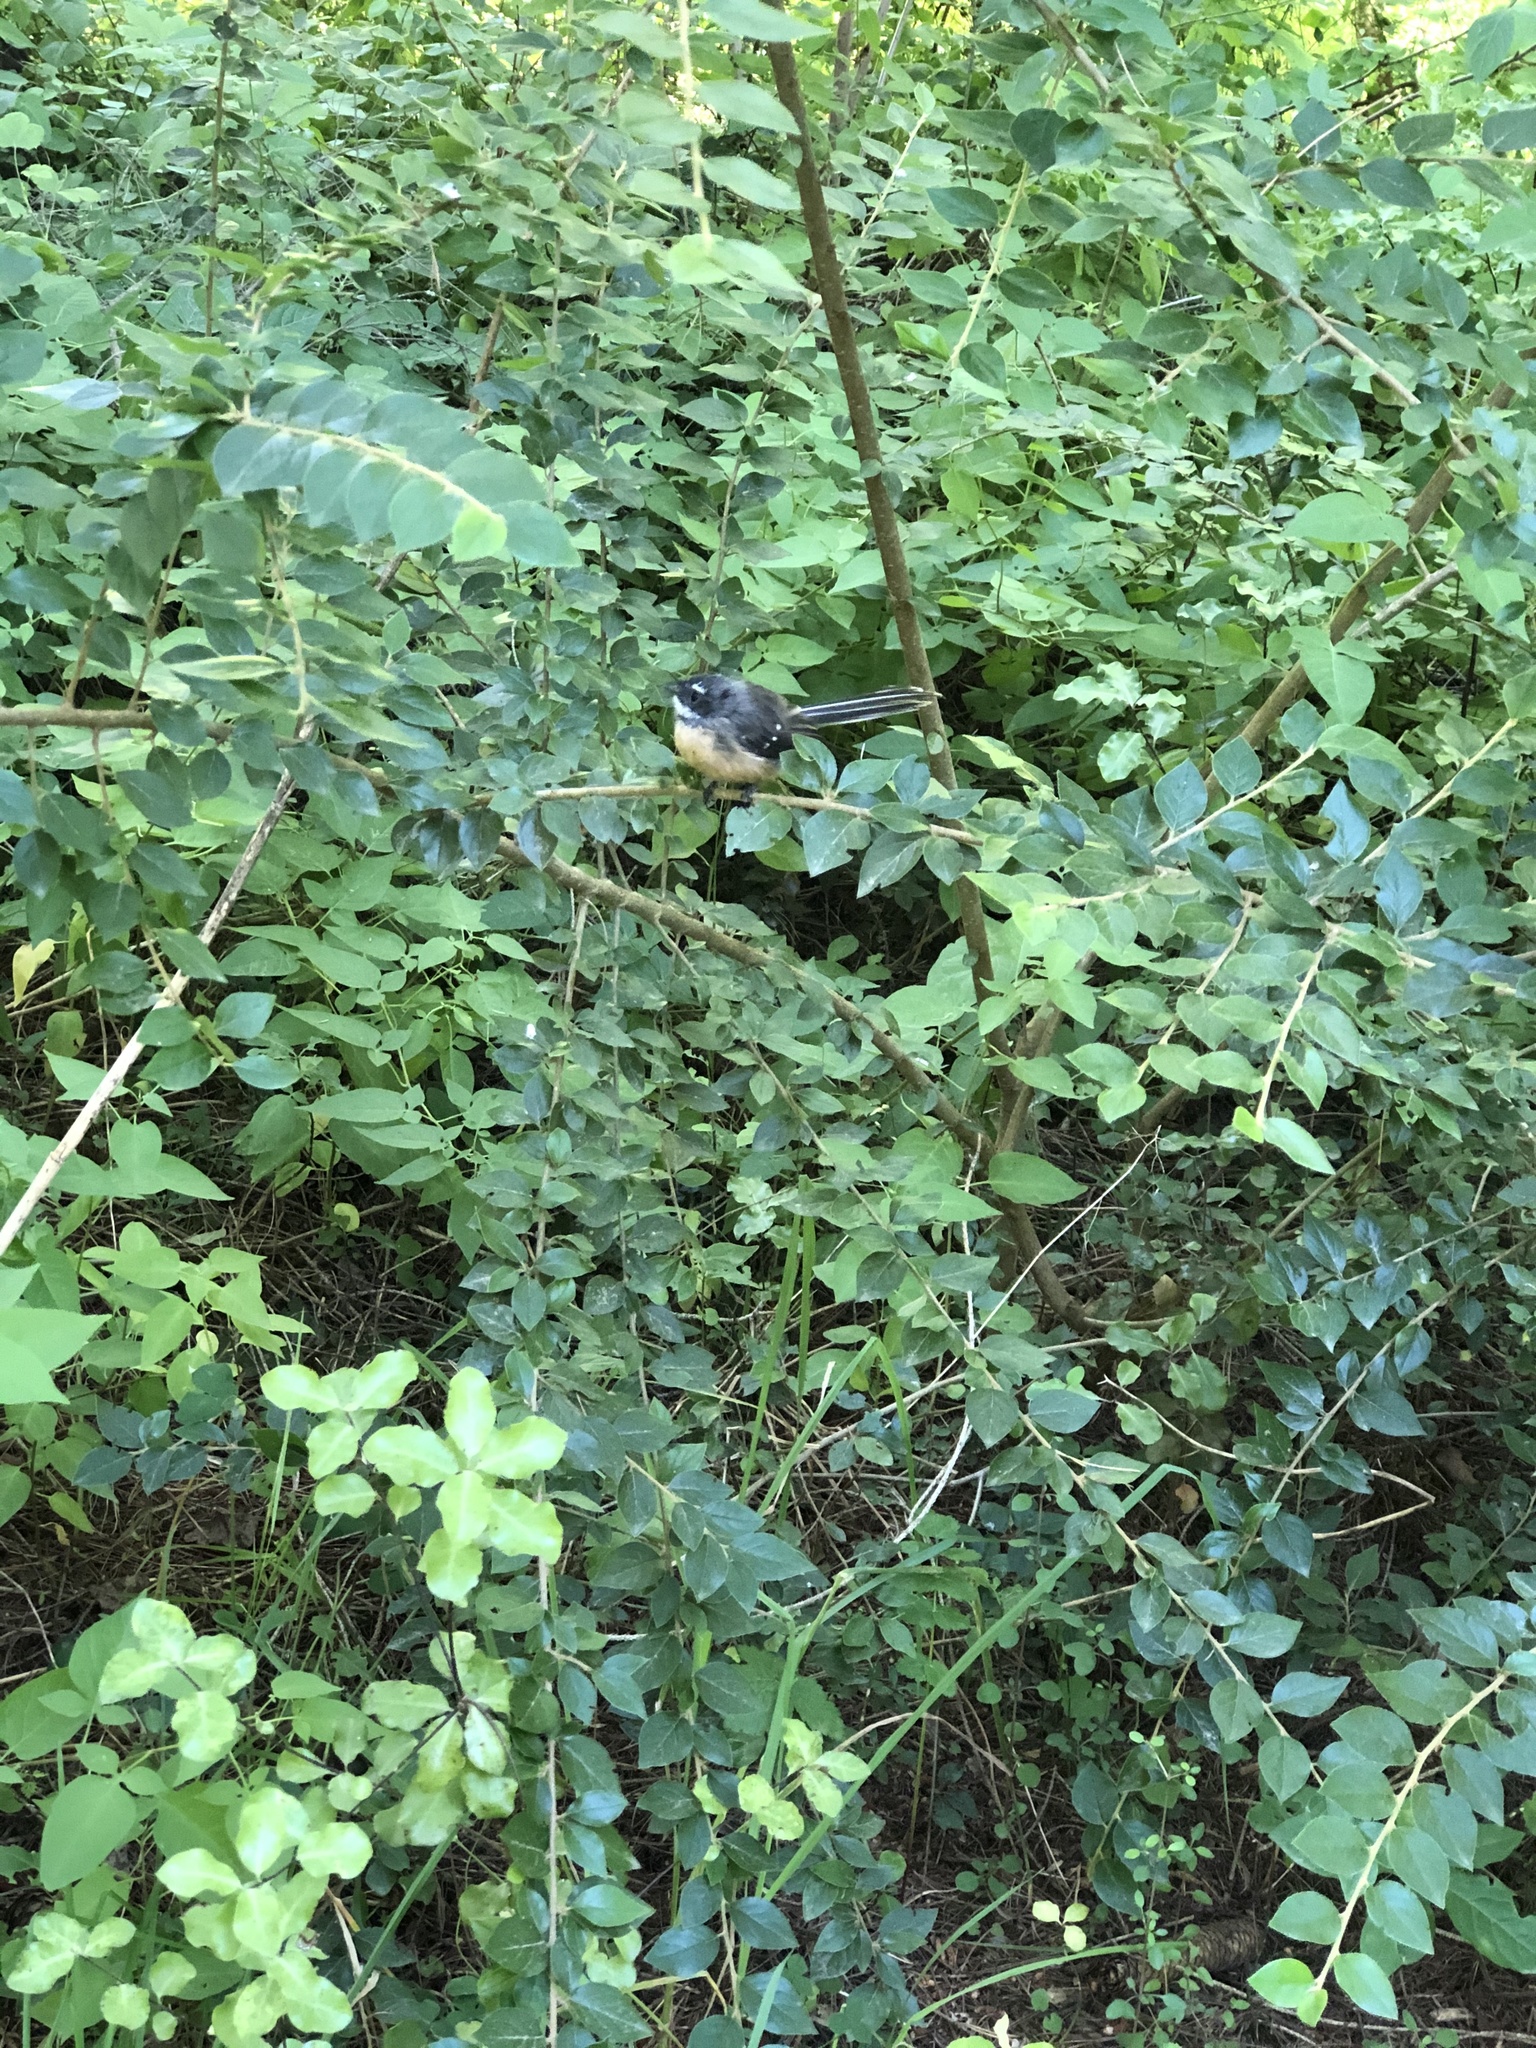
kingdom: Animalia
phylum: Chordata
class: Aves
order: Passeriformes
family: Rhipiduridae
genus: Rhipidura
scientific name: Rhipidura fuliginosa
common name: New zealand fantail
